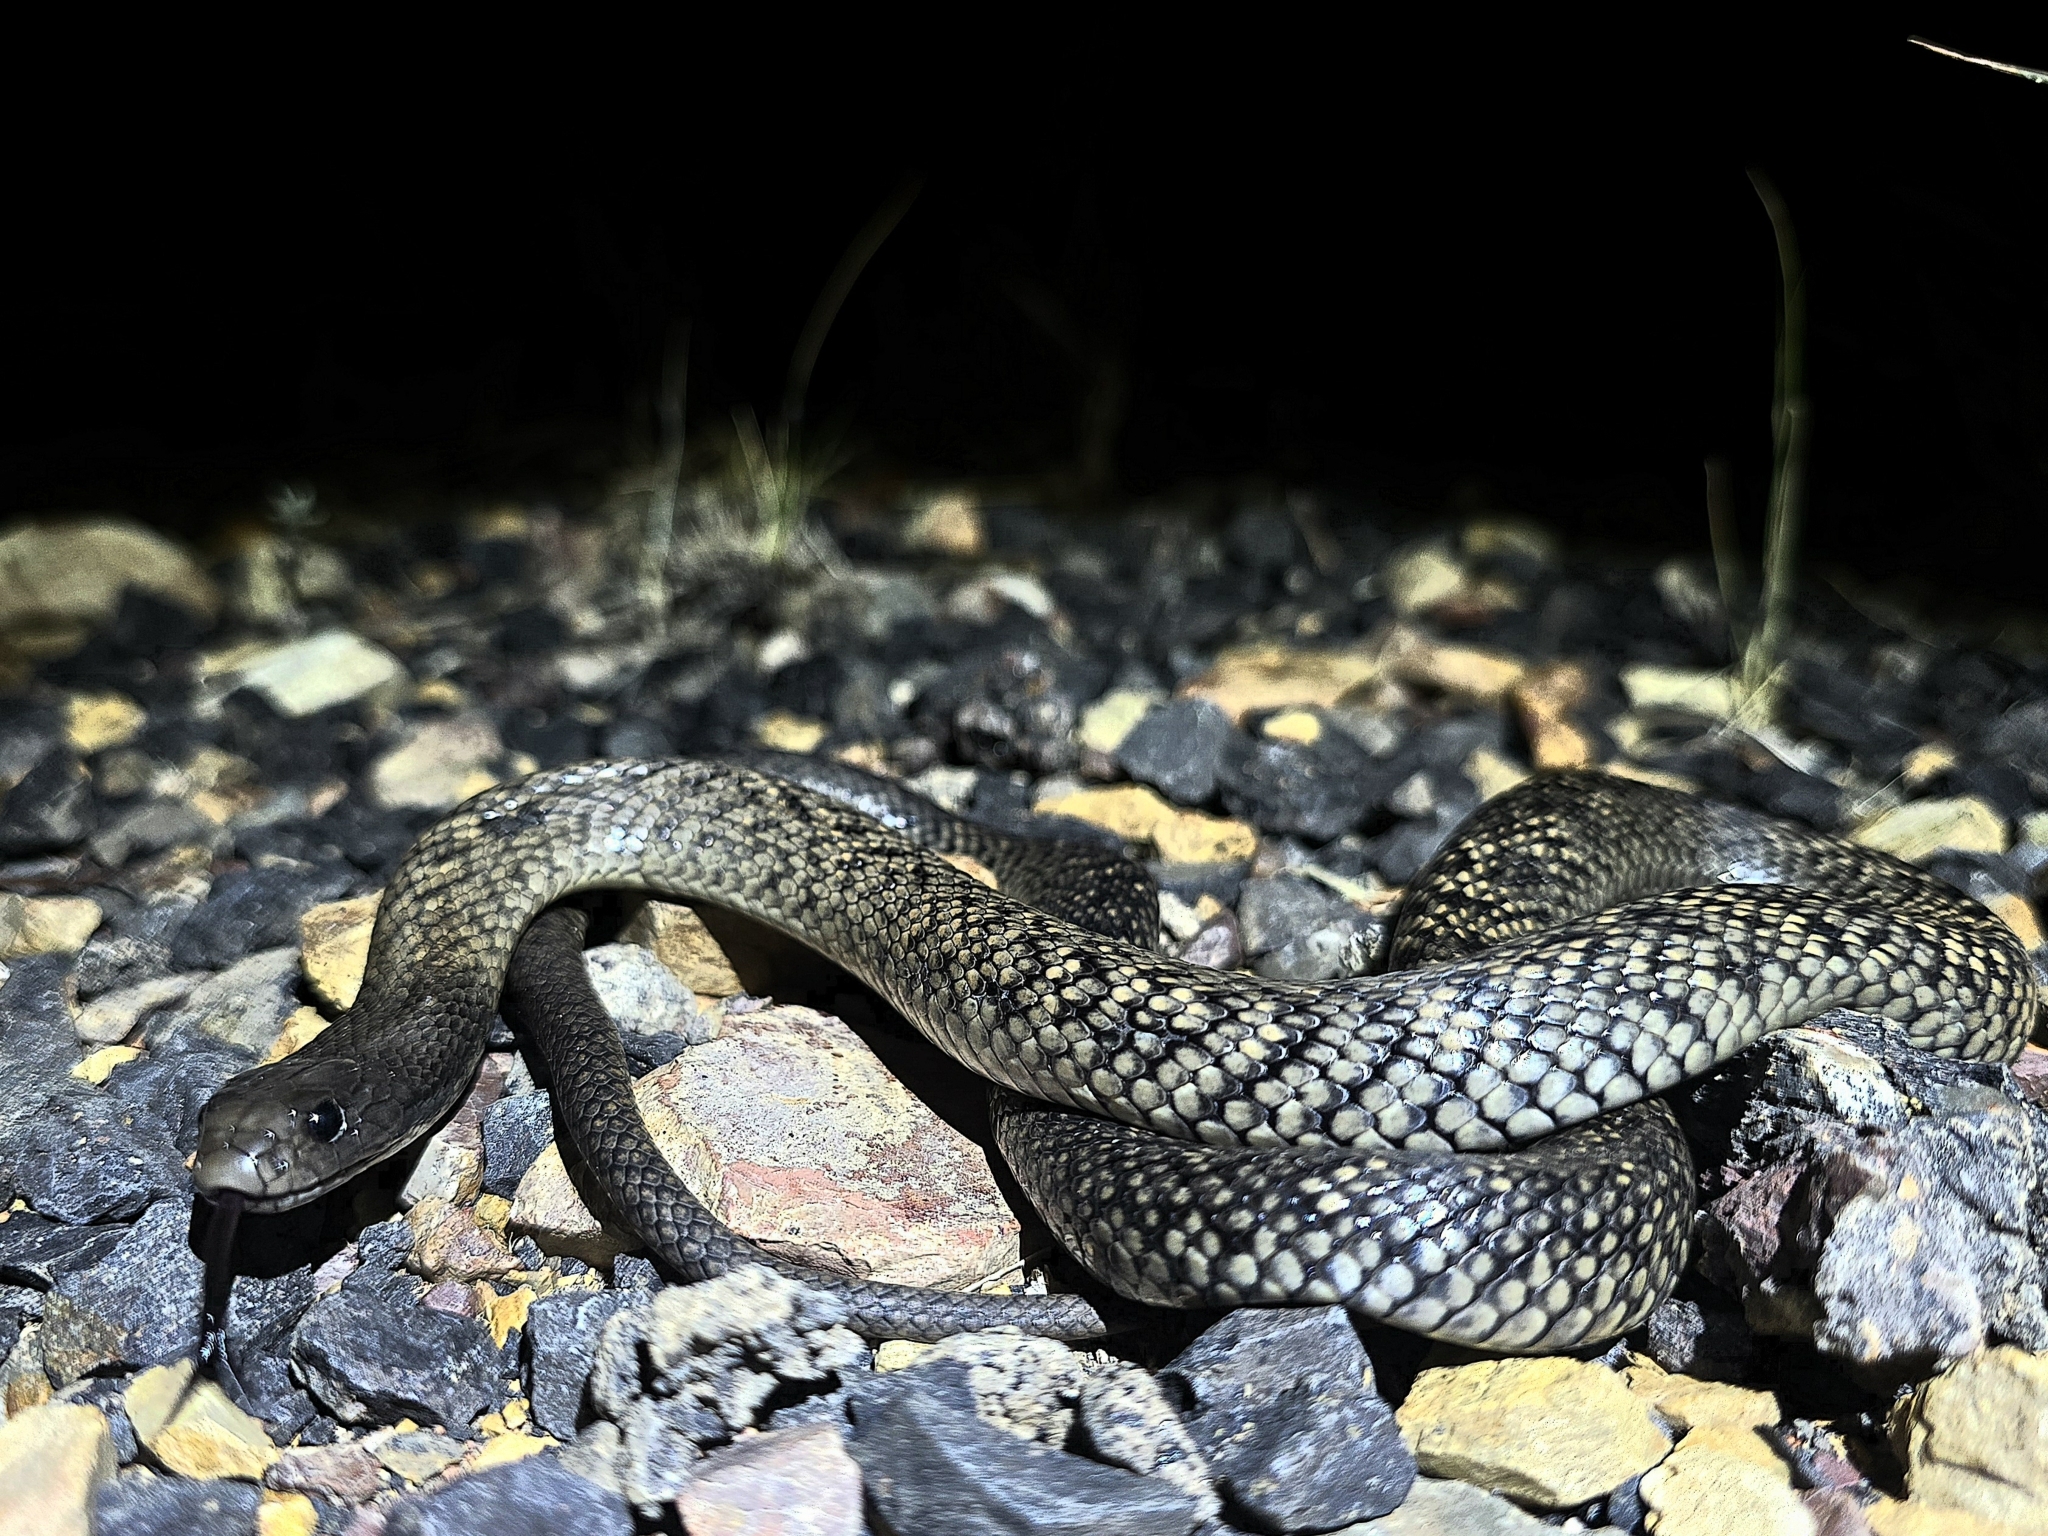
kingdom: Animalia
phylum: Chordata
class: Squamata
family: Elapidae
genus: Pseudechis
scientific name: Pseudechis guttatus
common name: Blue-bellied black snake
